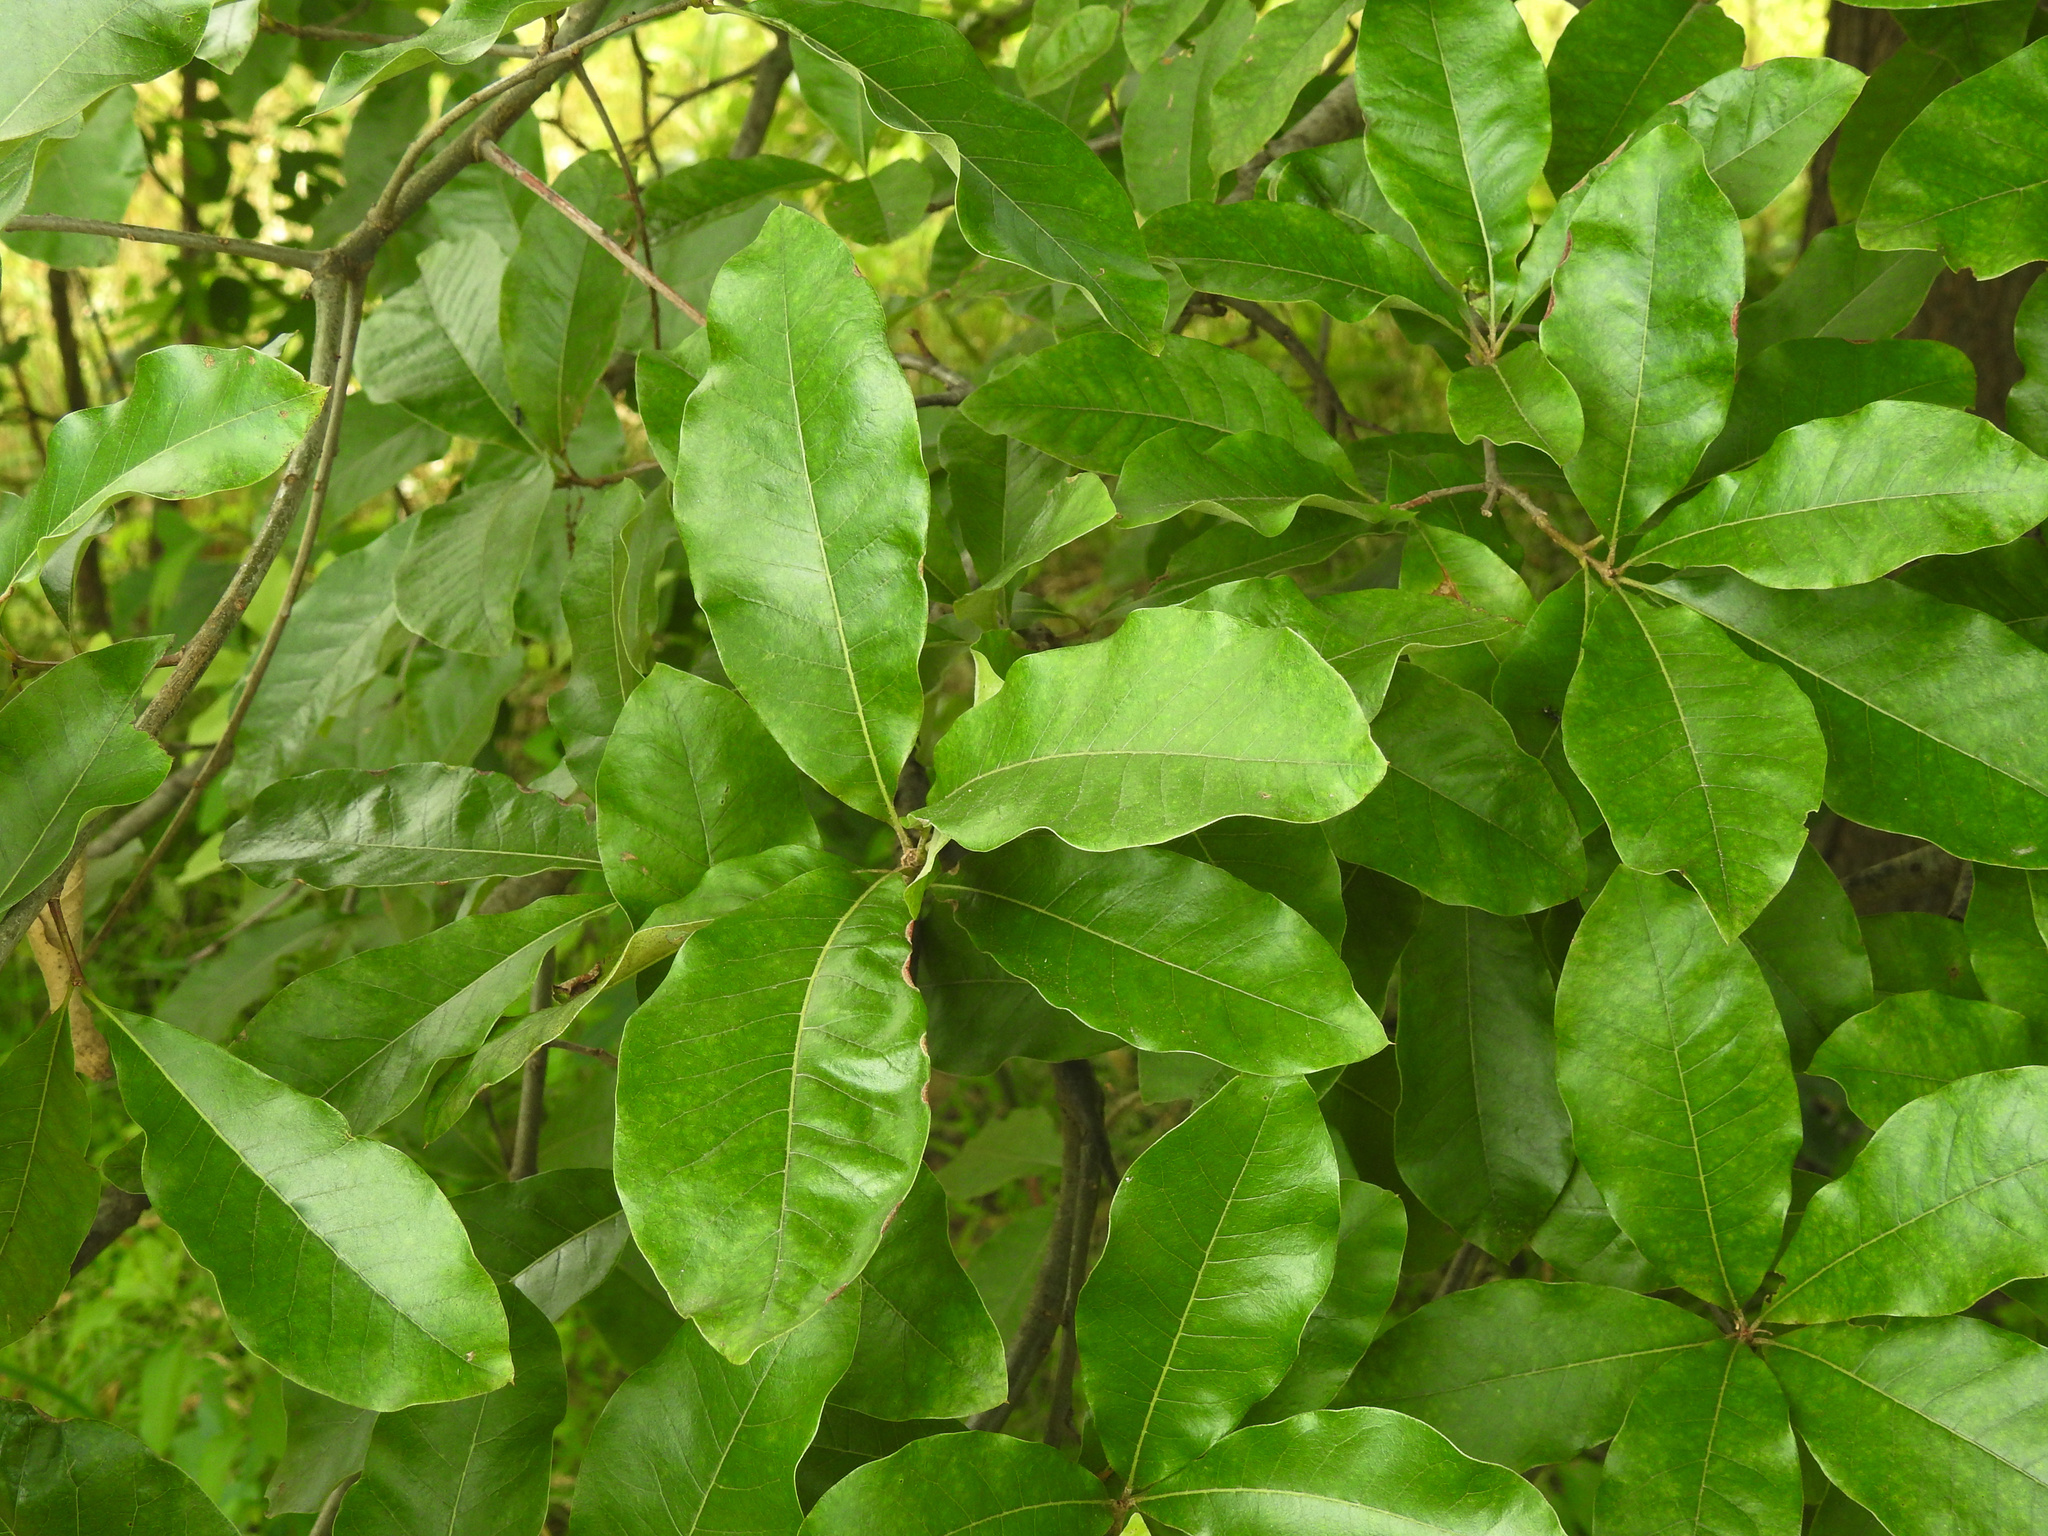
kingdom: Plantae
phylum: Tracheophyta
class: Magnoliopsida
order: Fagales
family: Fagaceae
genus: Quercus
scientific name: Quercus imbricaria
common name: Shingle oak
